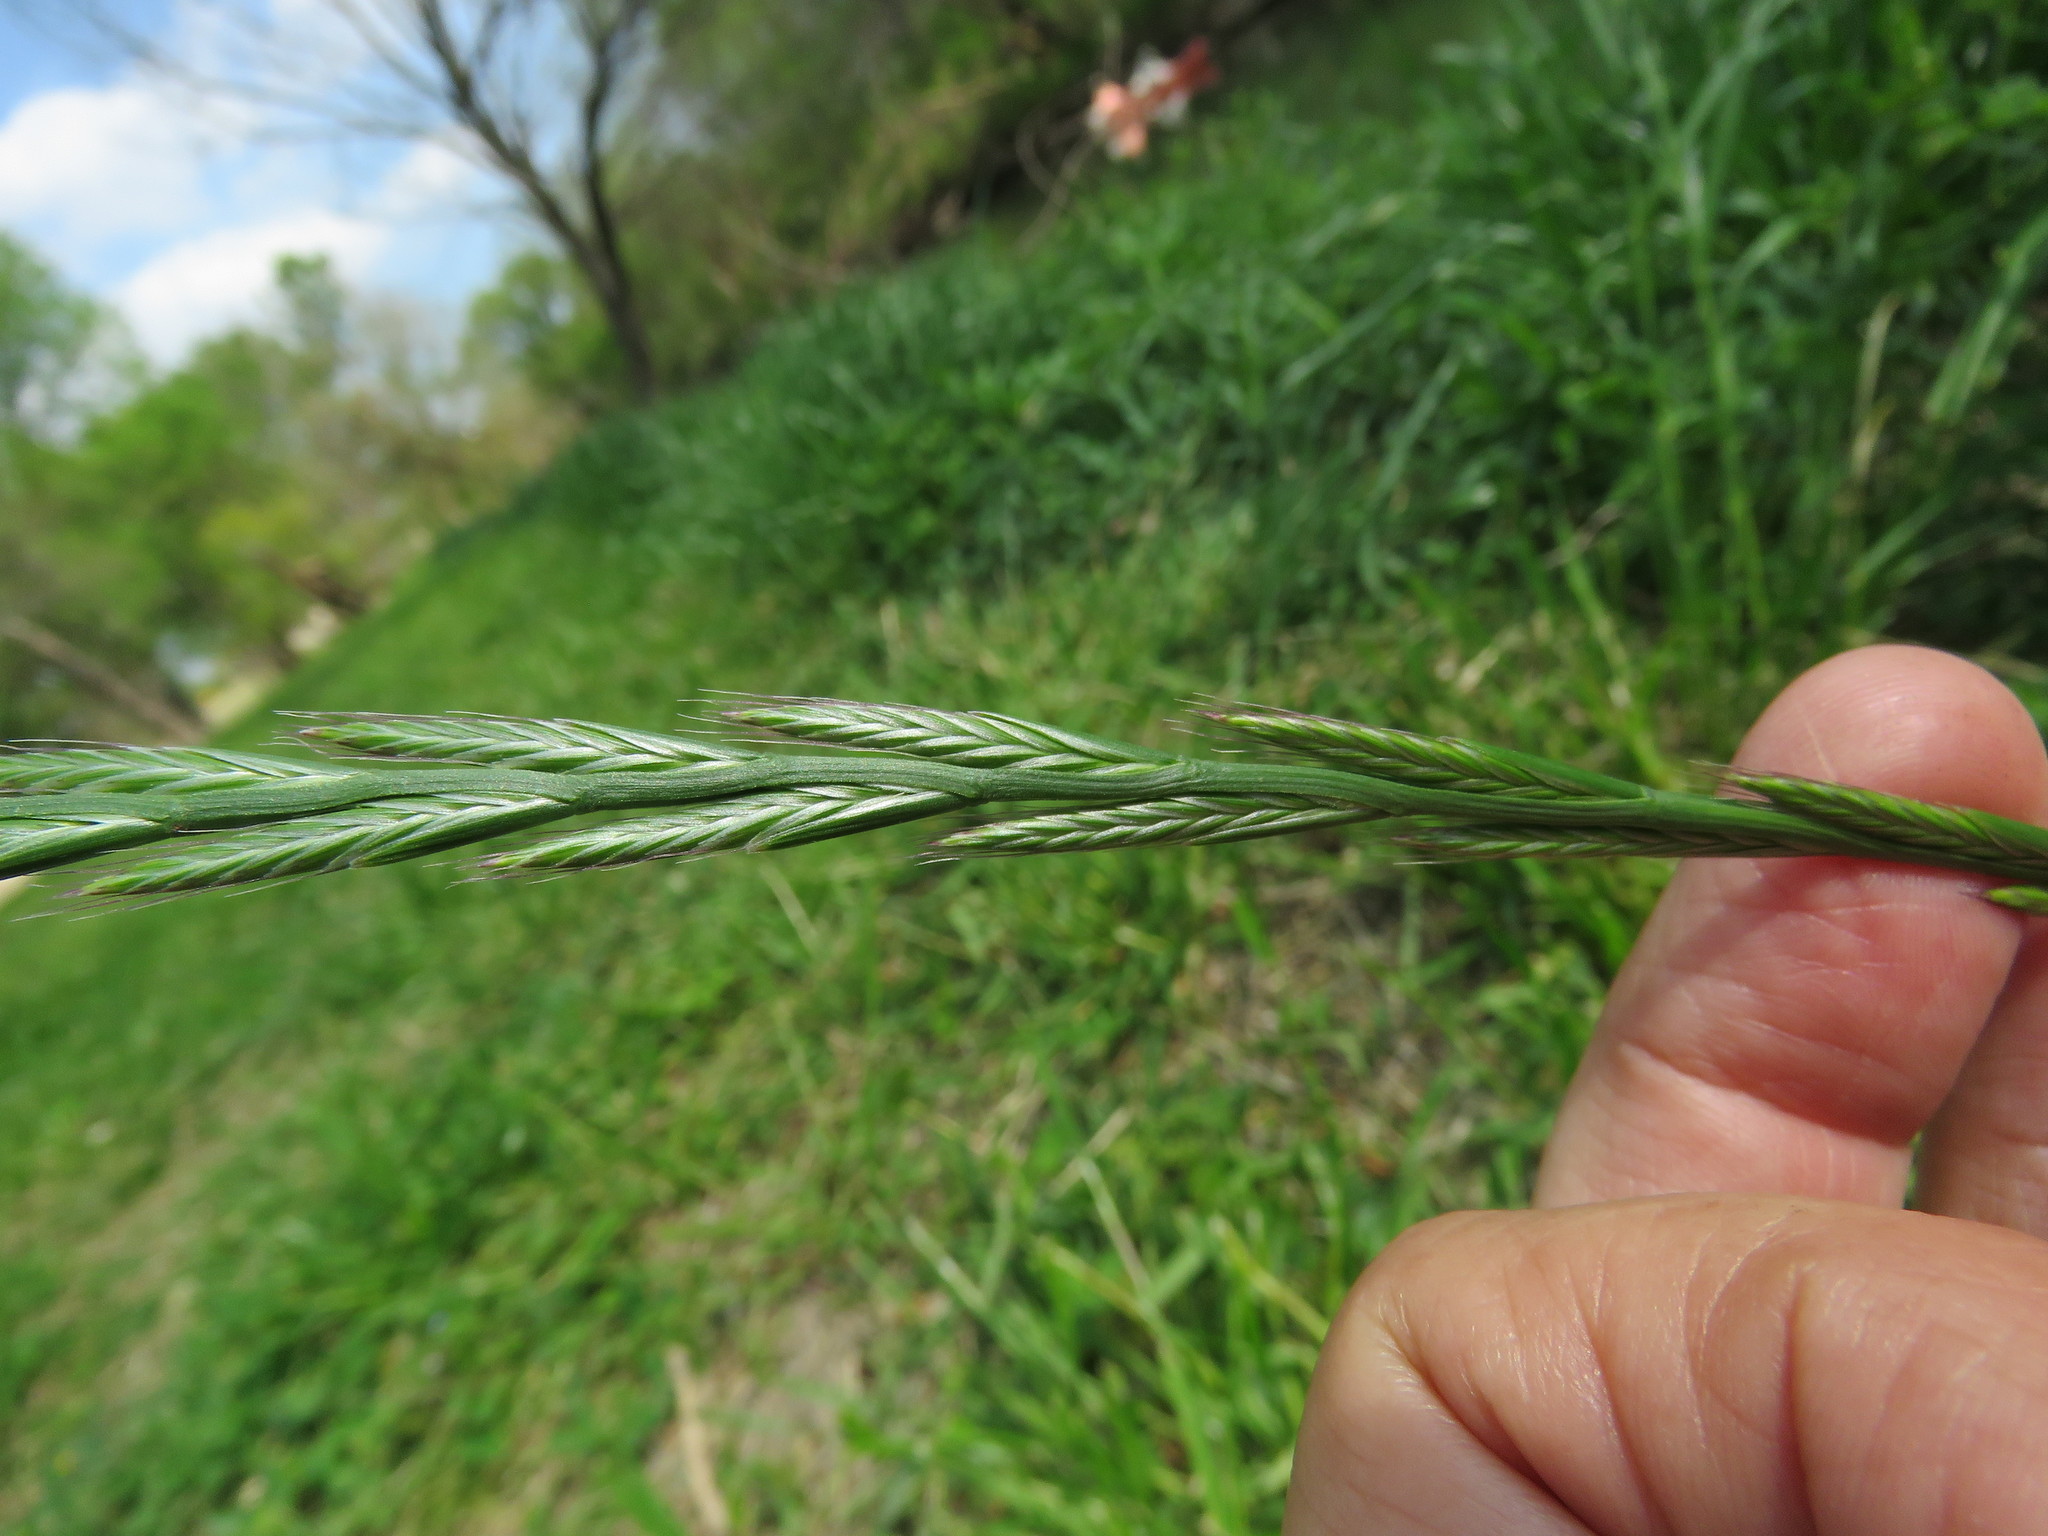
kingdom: Plantae
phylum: Tracheophyta
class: Liliopsida
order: Poales
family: Poaceae
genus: Lolium
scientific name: Lolium multiflorum
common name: Annual ryegrass
